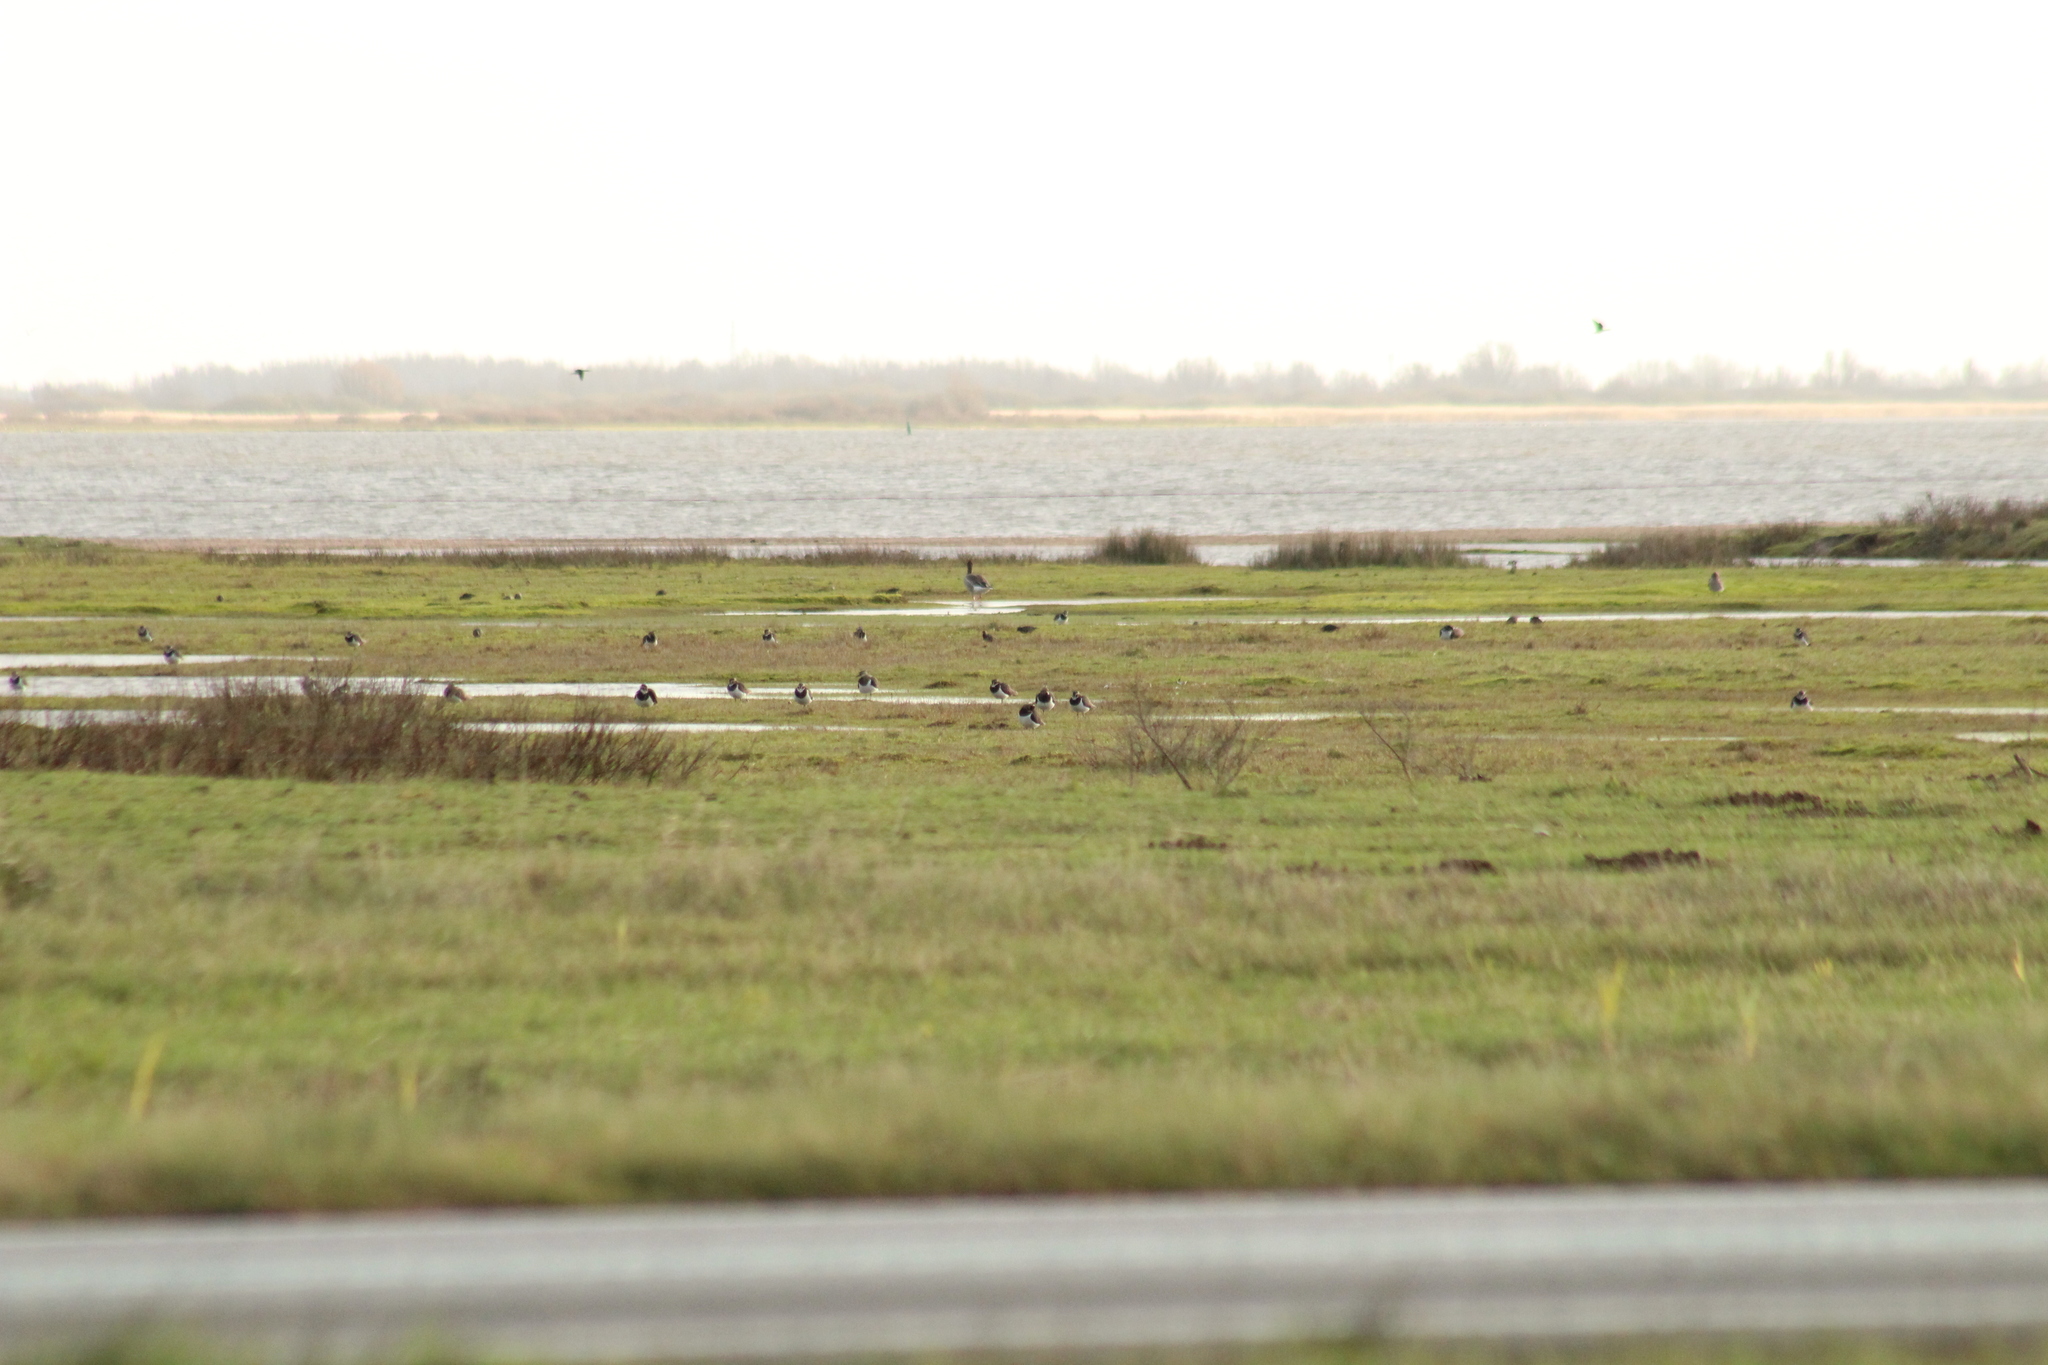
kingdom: Animalia
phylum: Chordata
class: Aves
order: Charadriiformes
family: Charadriidae
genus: Vanellus
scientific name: Vanellus vanellus
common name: Northern lapwing
